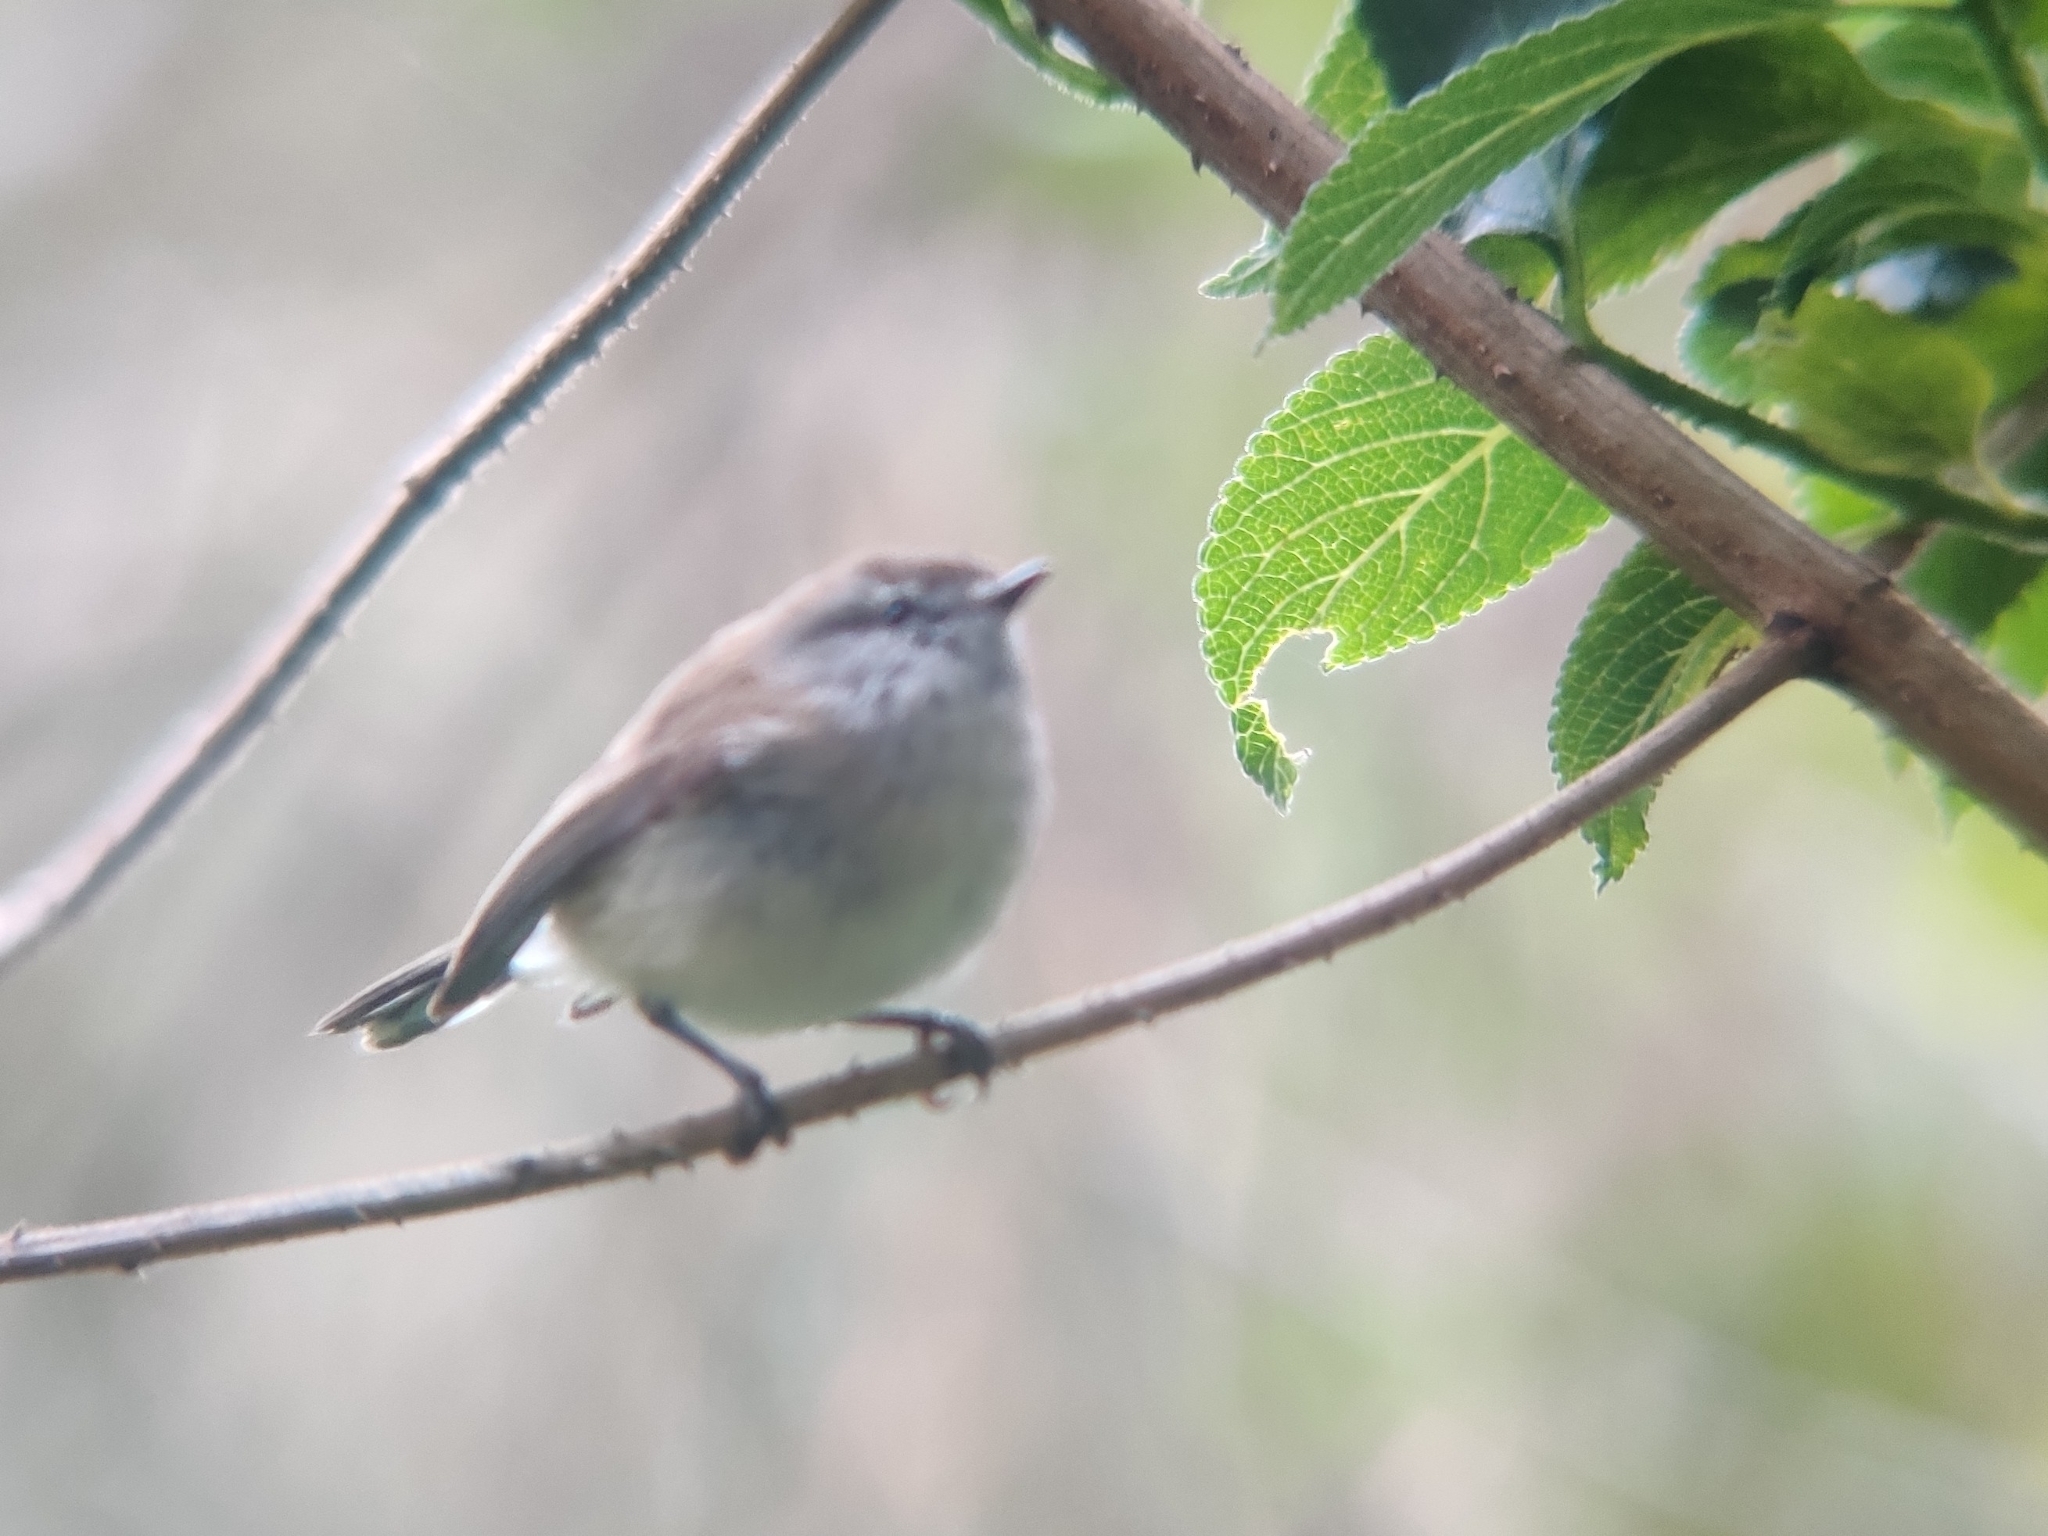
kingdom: Animalia
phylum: Chordata
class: Aves
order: Passeriformes
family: Acanthizidae
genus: Gerygone
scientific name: Gerygone mouki
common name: Brown gerygone
